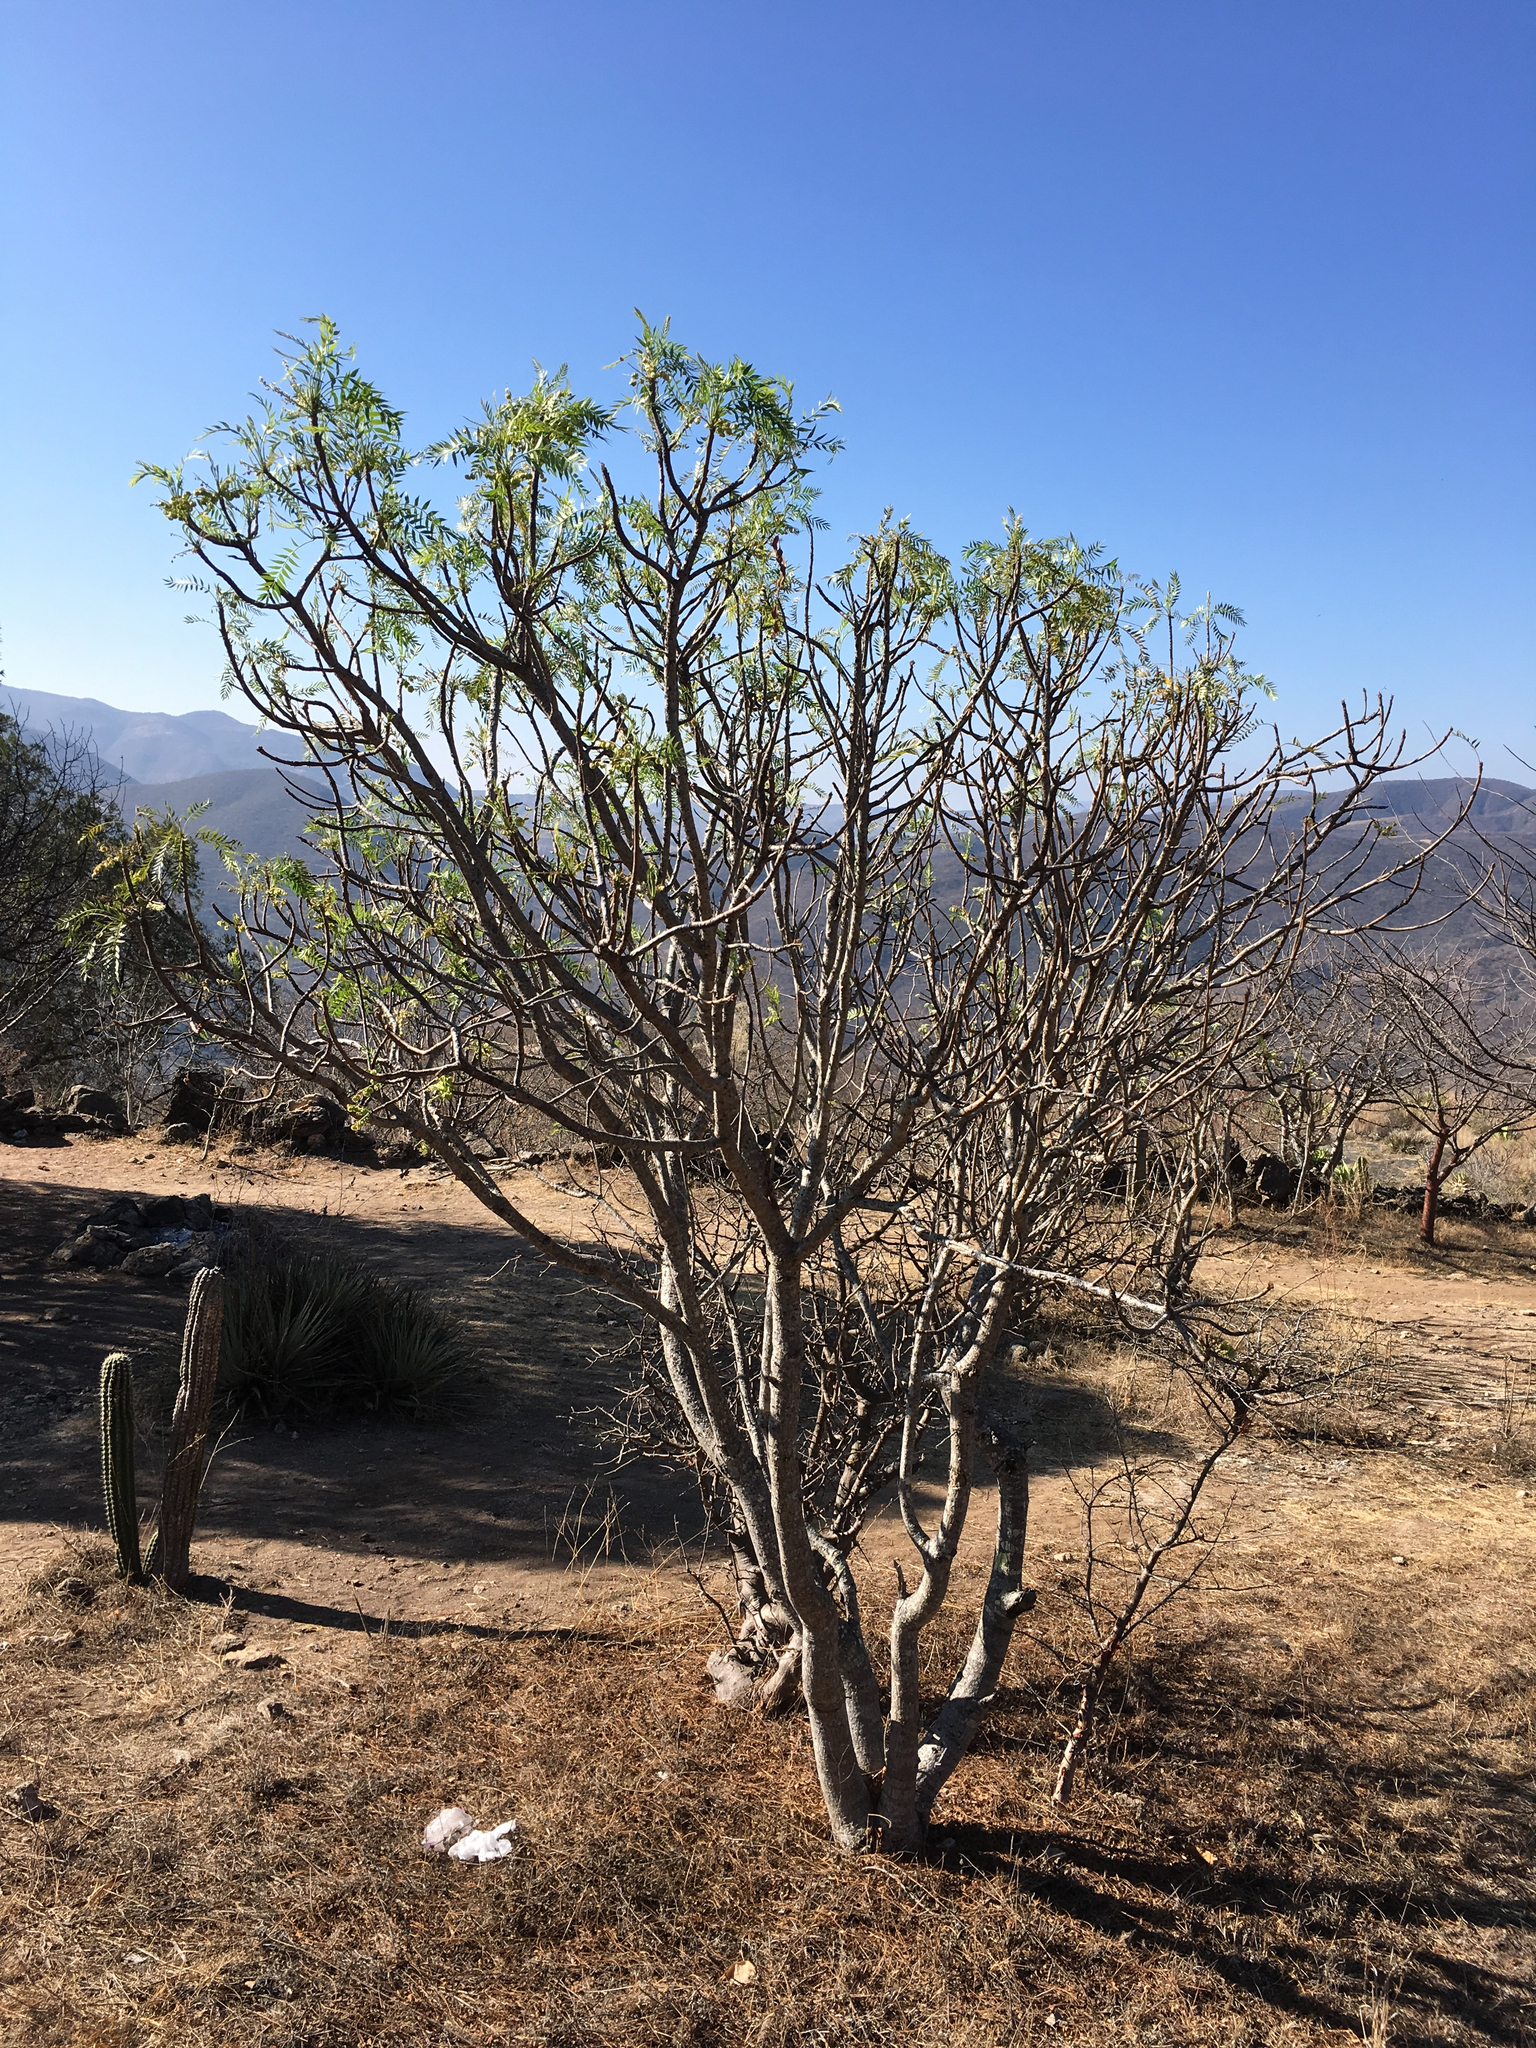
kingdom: Plantae
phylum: Tracheophyta
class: Magnoliopsida
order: Sapindales
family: Anacardiaceae
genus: Pseudosmodingium
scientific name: Pseudosmodingium andrieuxii
